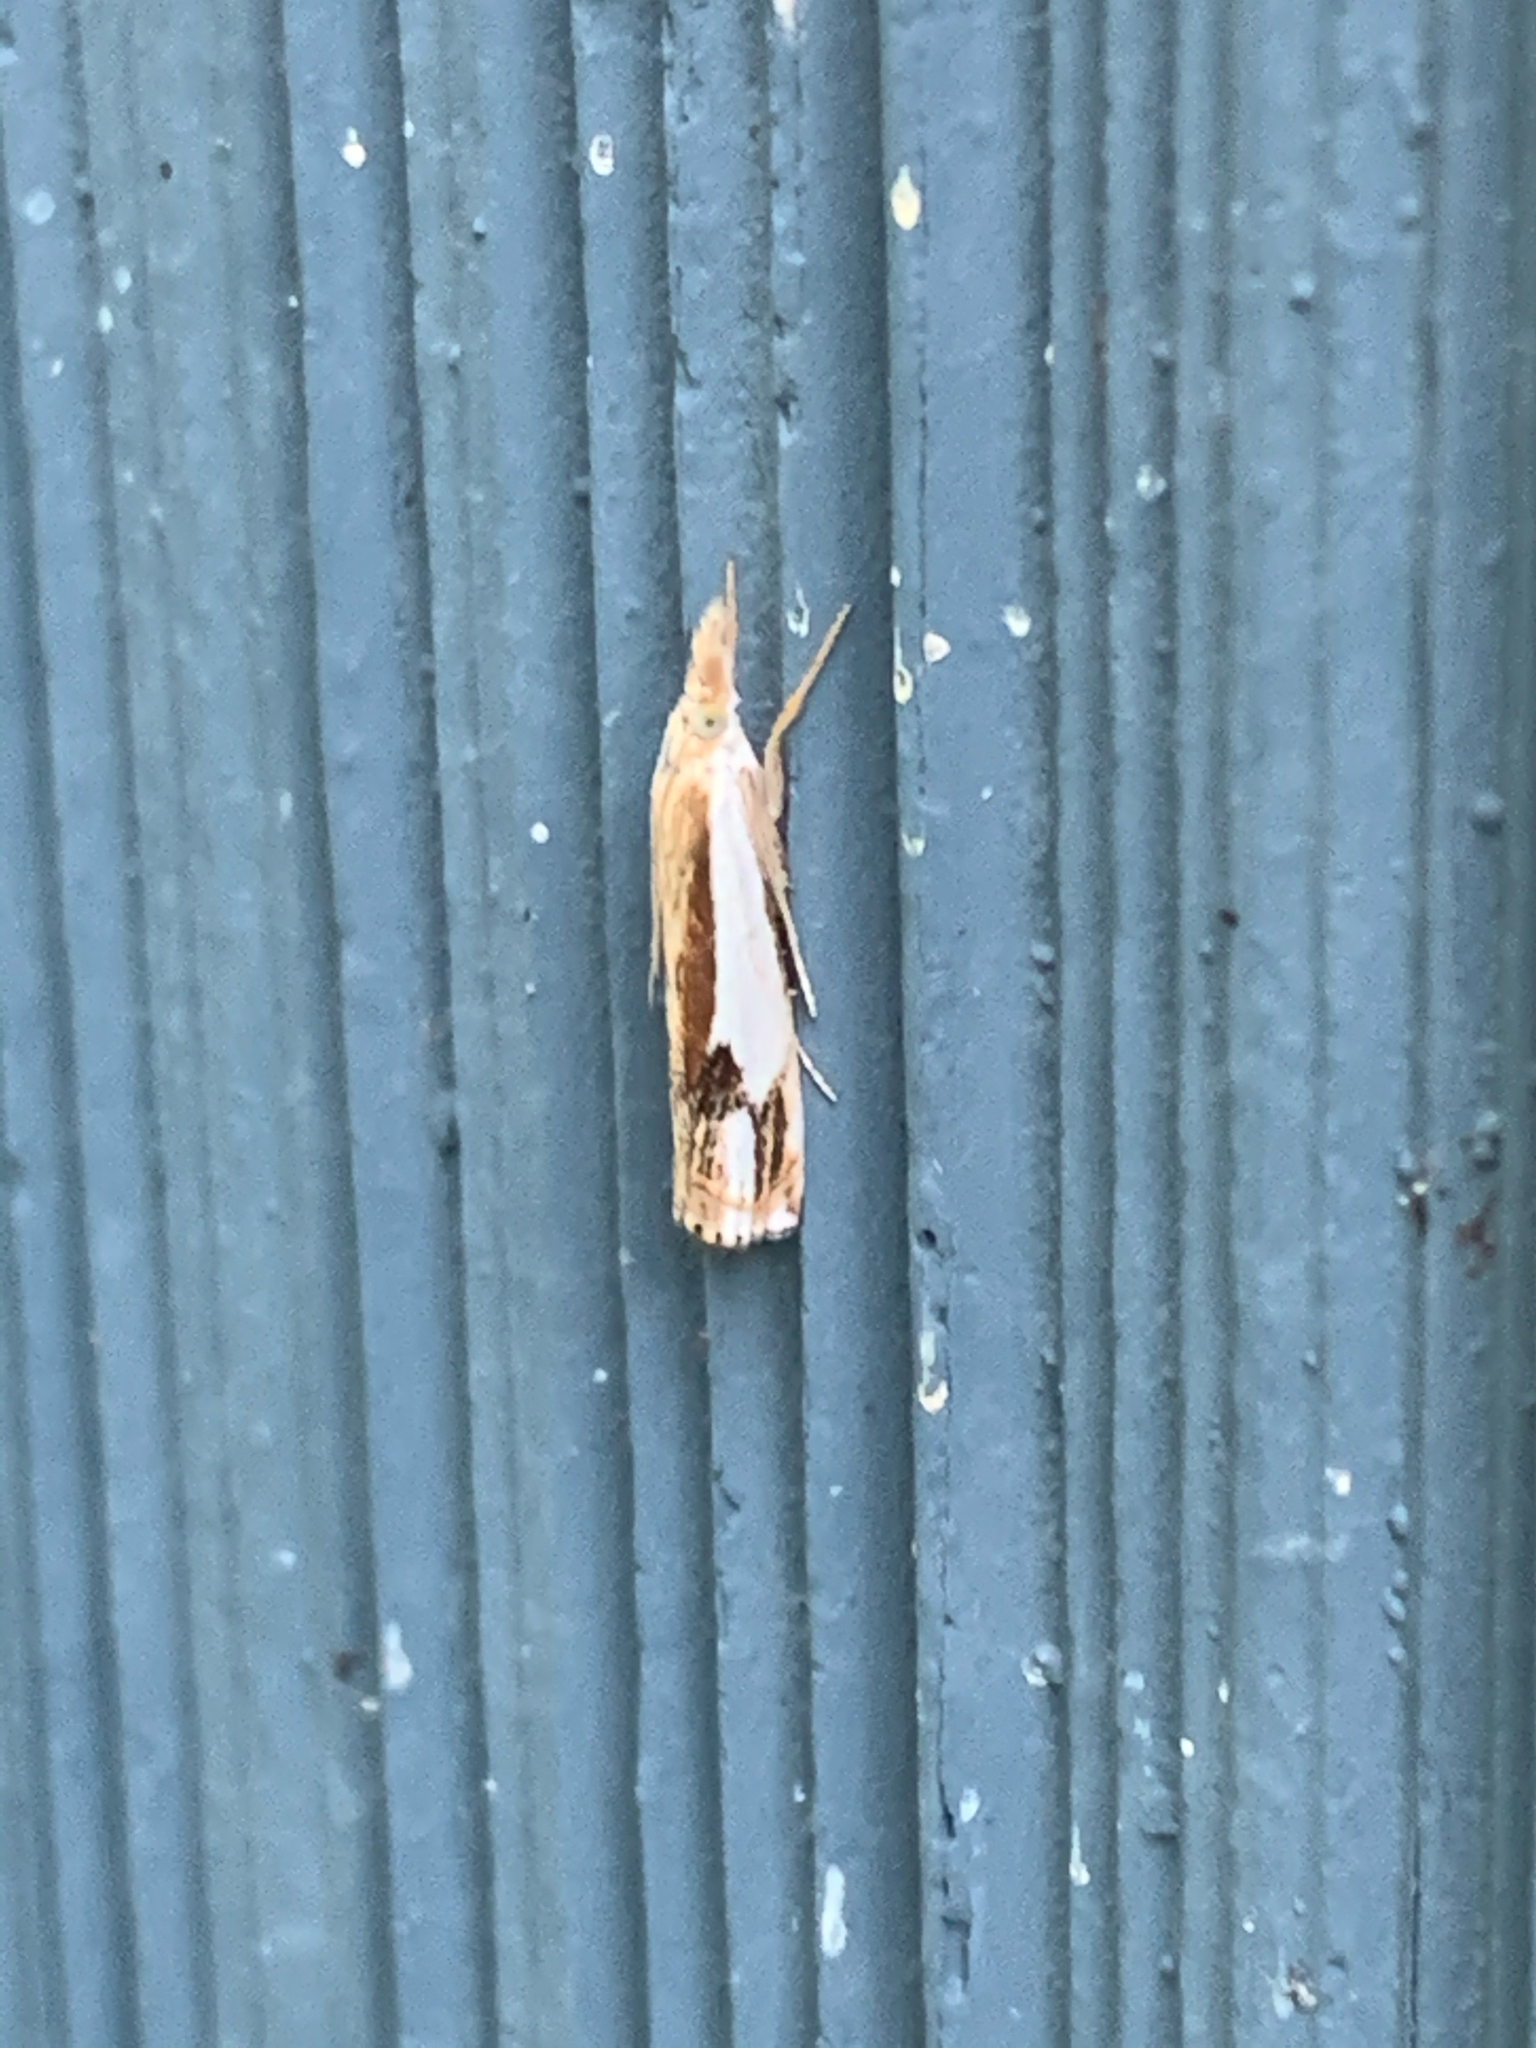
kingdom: Animalia
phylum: Arthropoda
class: Insecta
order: Lepidoptera
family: Crambidae
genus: Crambus
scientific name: Crambus agitatellus
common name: Double-banded grass-veneer
